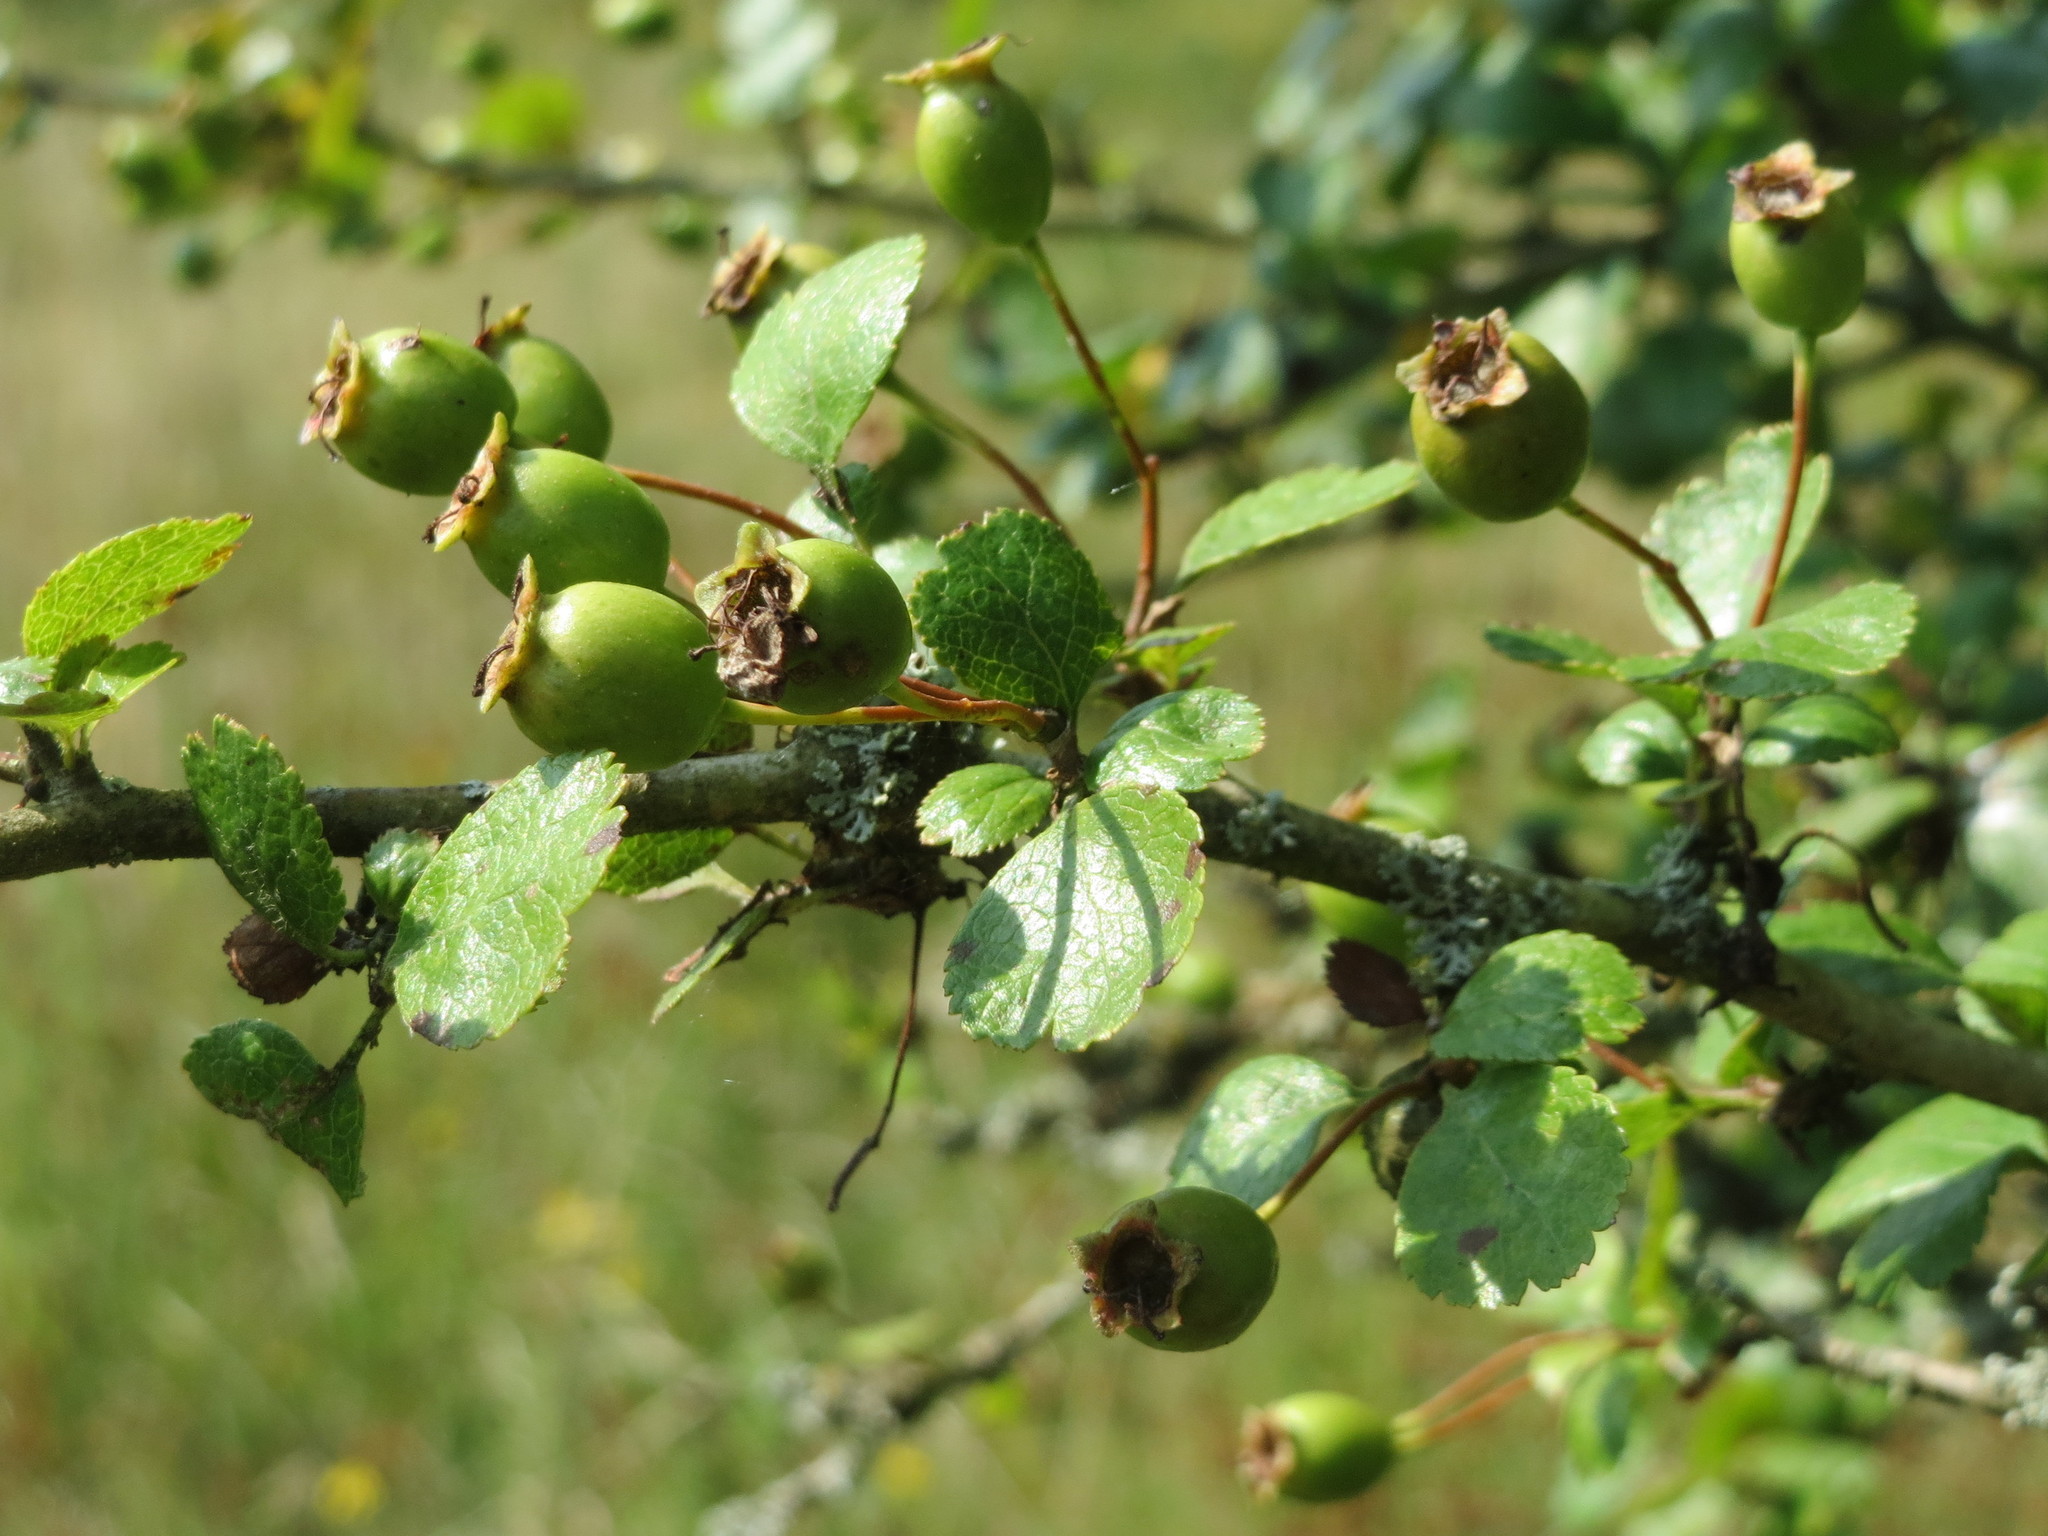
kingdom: Plantae
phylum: Tracheophyta
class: Magnoliopsida
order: Rosales
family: Rosaceae
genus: Crataegus
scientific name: Crataegus laevigata
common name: Midland hawthorn
